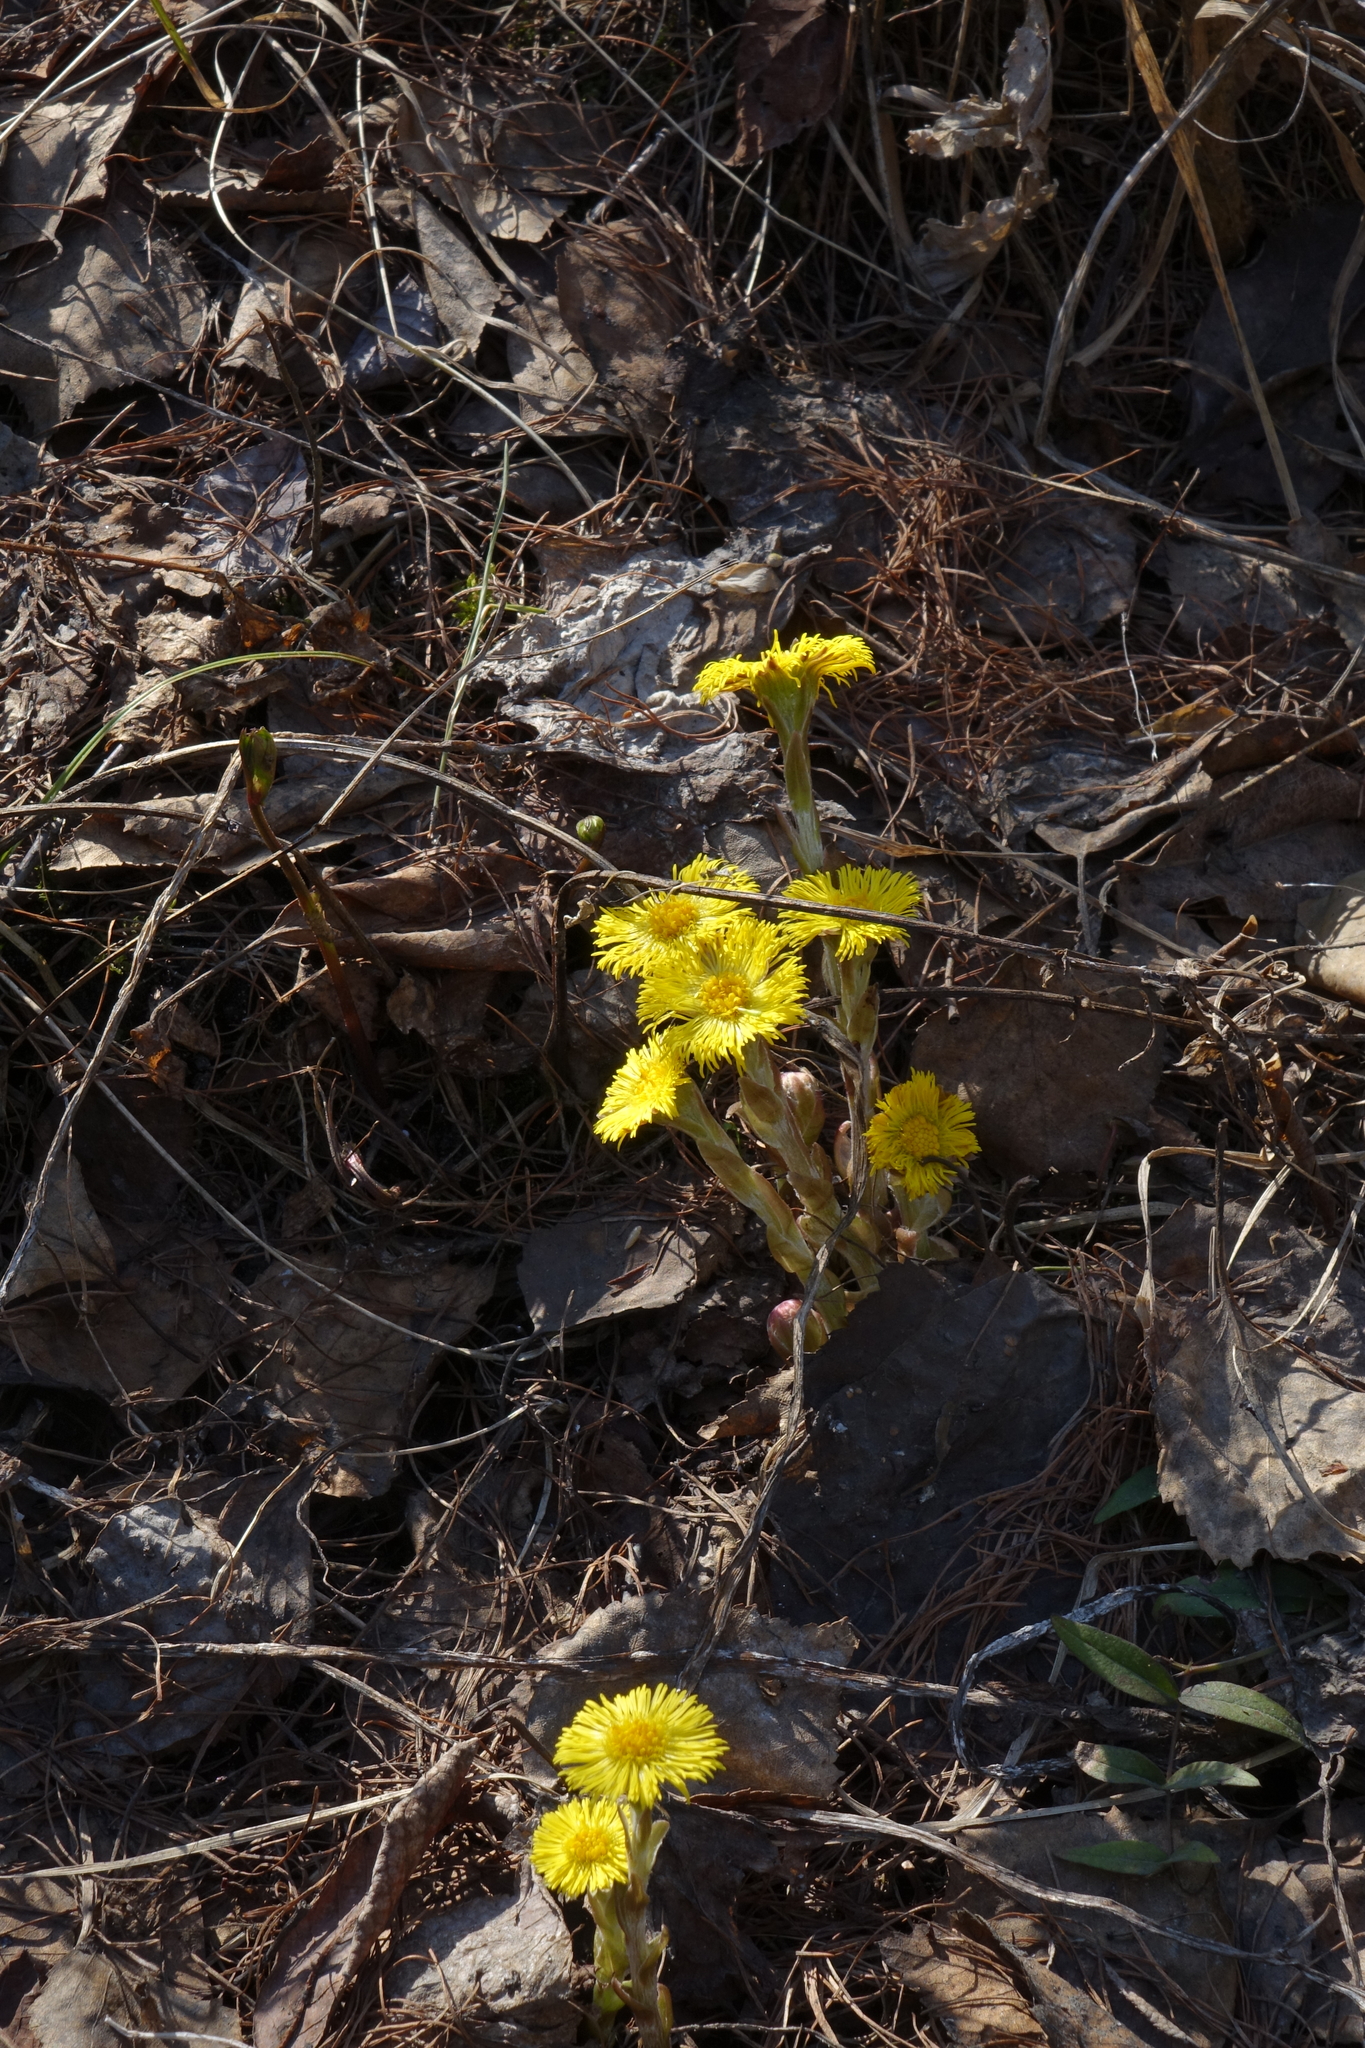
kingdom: Plantae
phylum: Tracheophyta
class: Magnoliopsida
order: Asterales
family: Asteraceae
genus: Tussilago
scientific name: Tussilago farfara
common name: Coltsfoot
